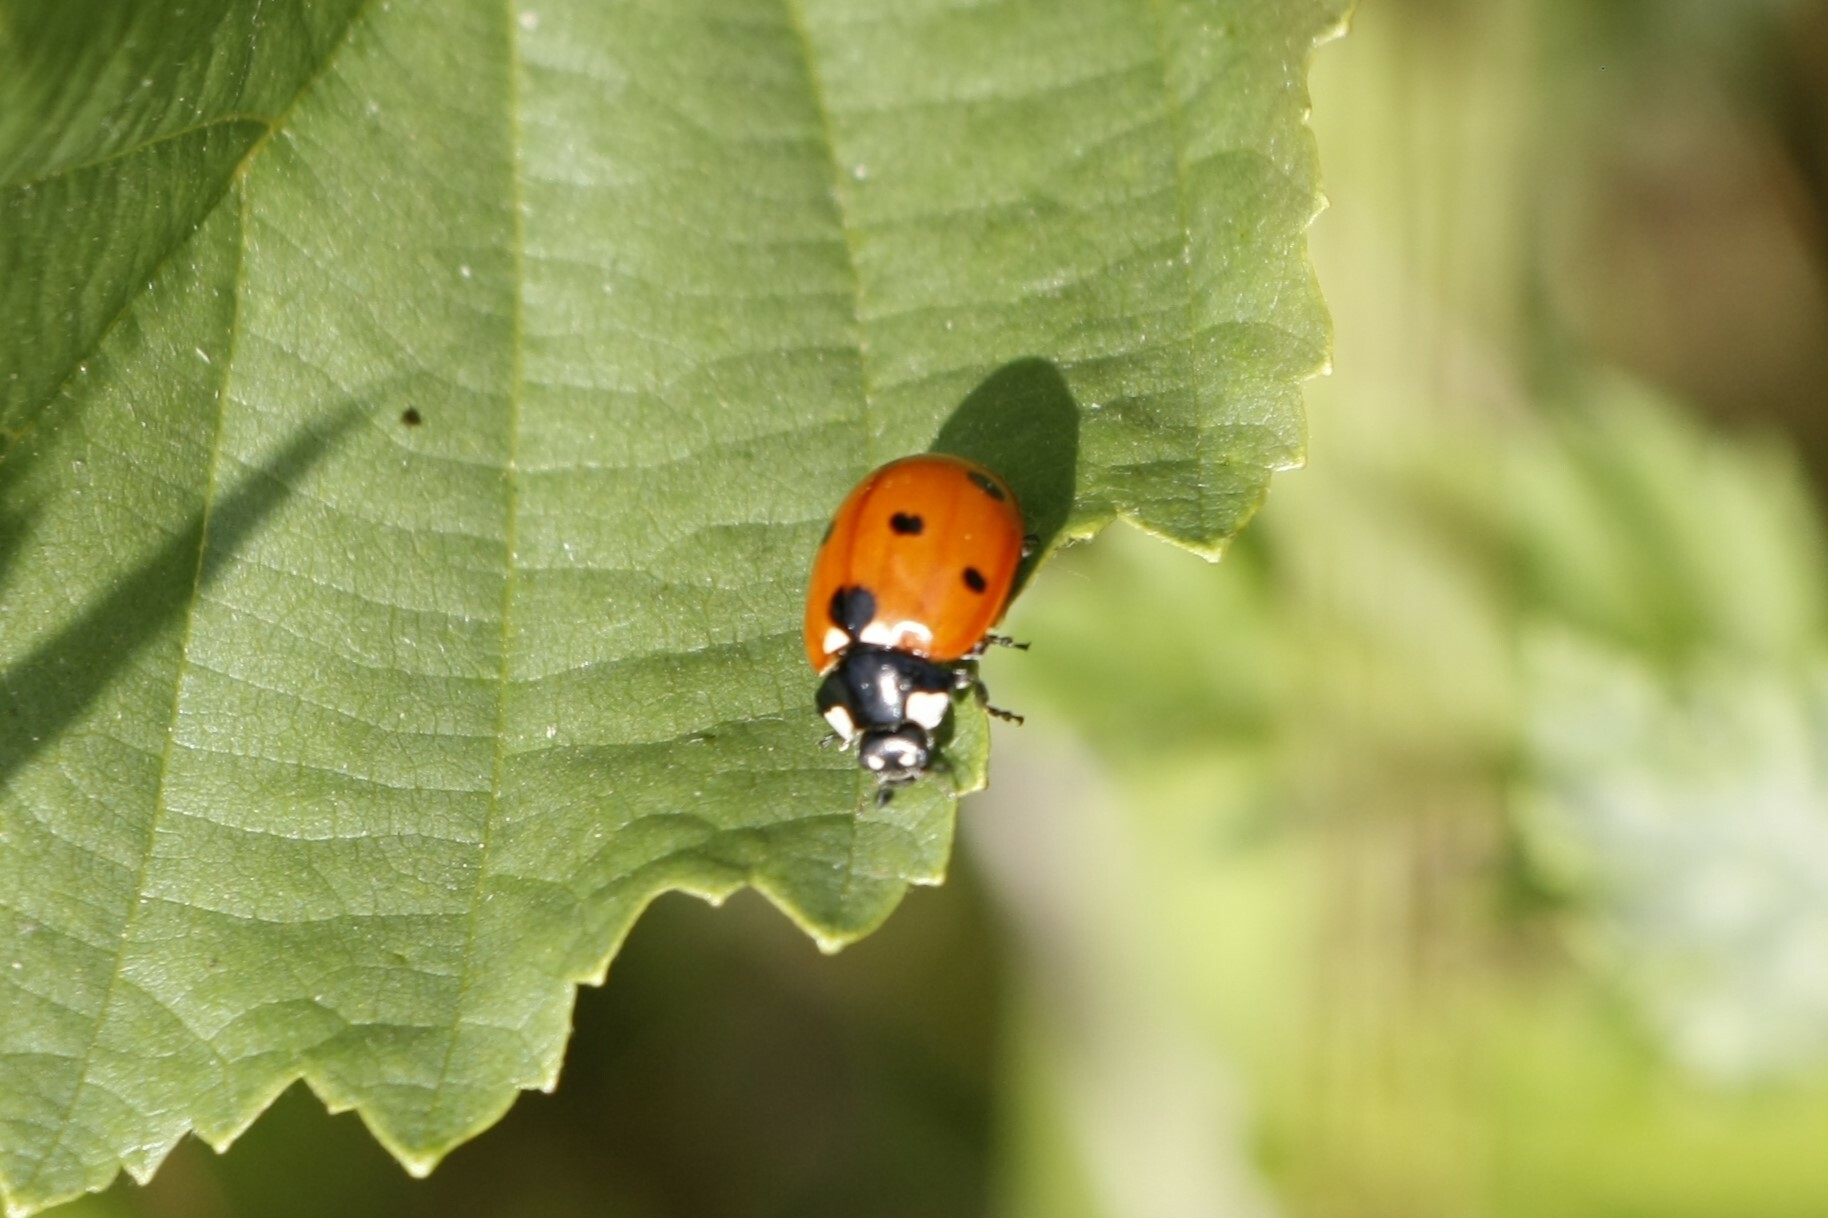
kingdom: Animalia
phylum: Arthropoda
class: Insecta
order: Coleoptera
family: Coccinellidae
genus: Coccinella
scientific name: Coccinella septempunctata
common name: Sevenspotted lady beetle
